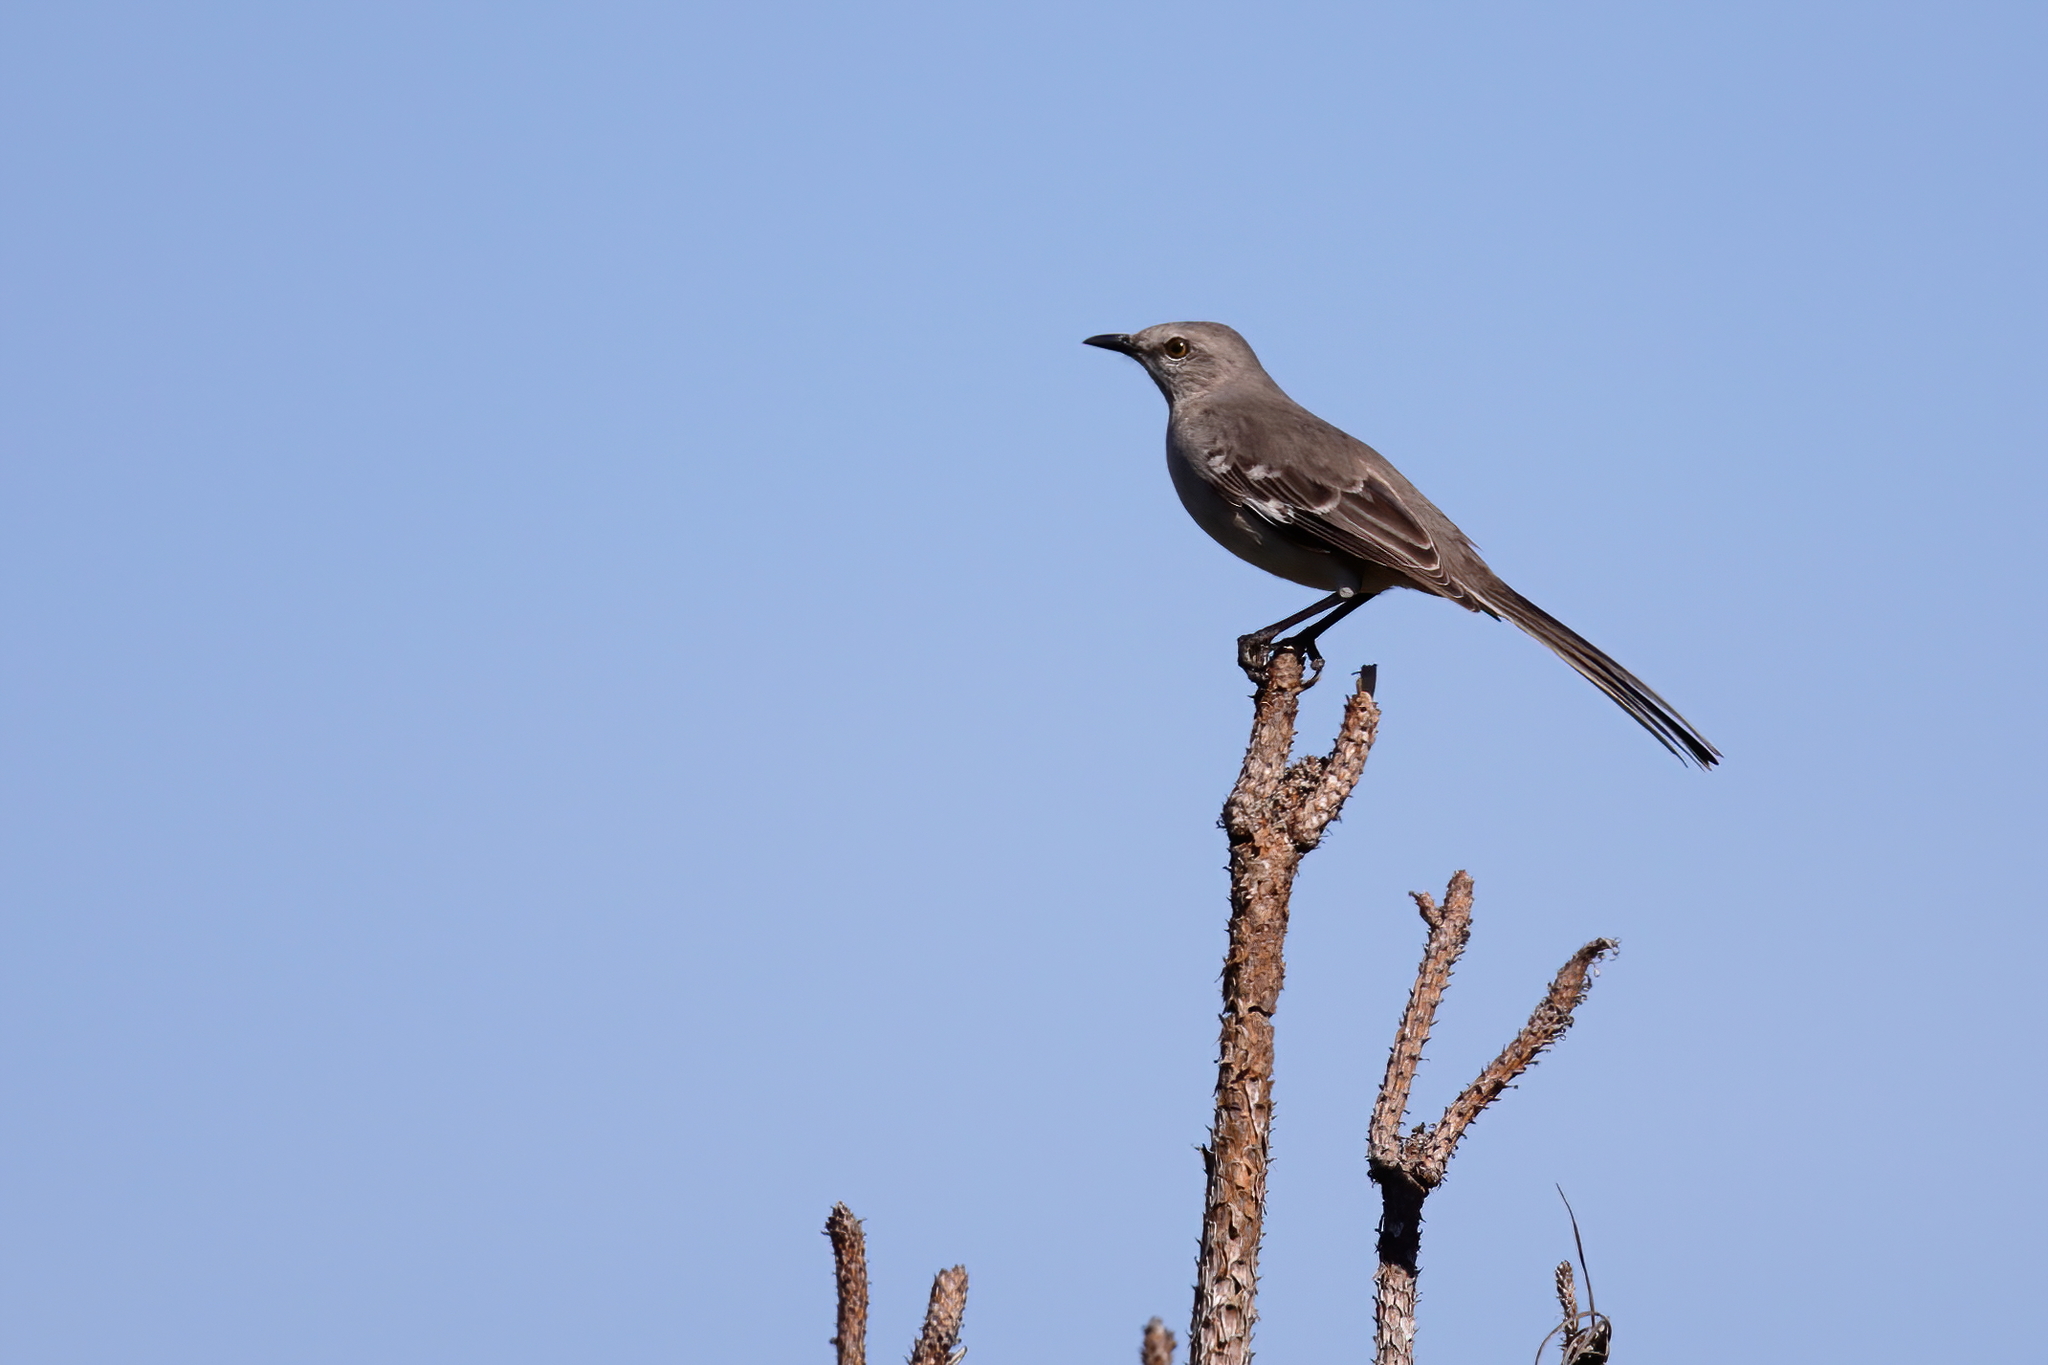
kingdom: Animalia
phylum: Chordata
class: Aves
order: Passeriformes
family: Mimidae
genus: Mimus
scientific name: Mimus polyglottos
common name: Northern mockingbird
